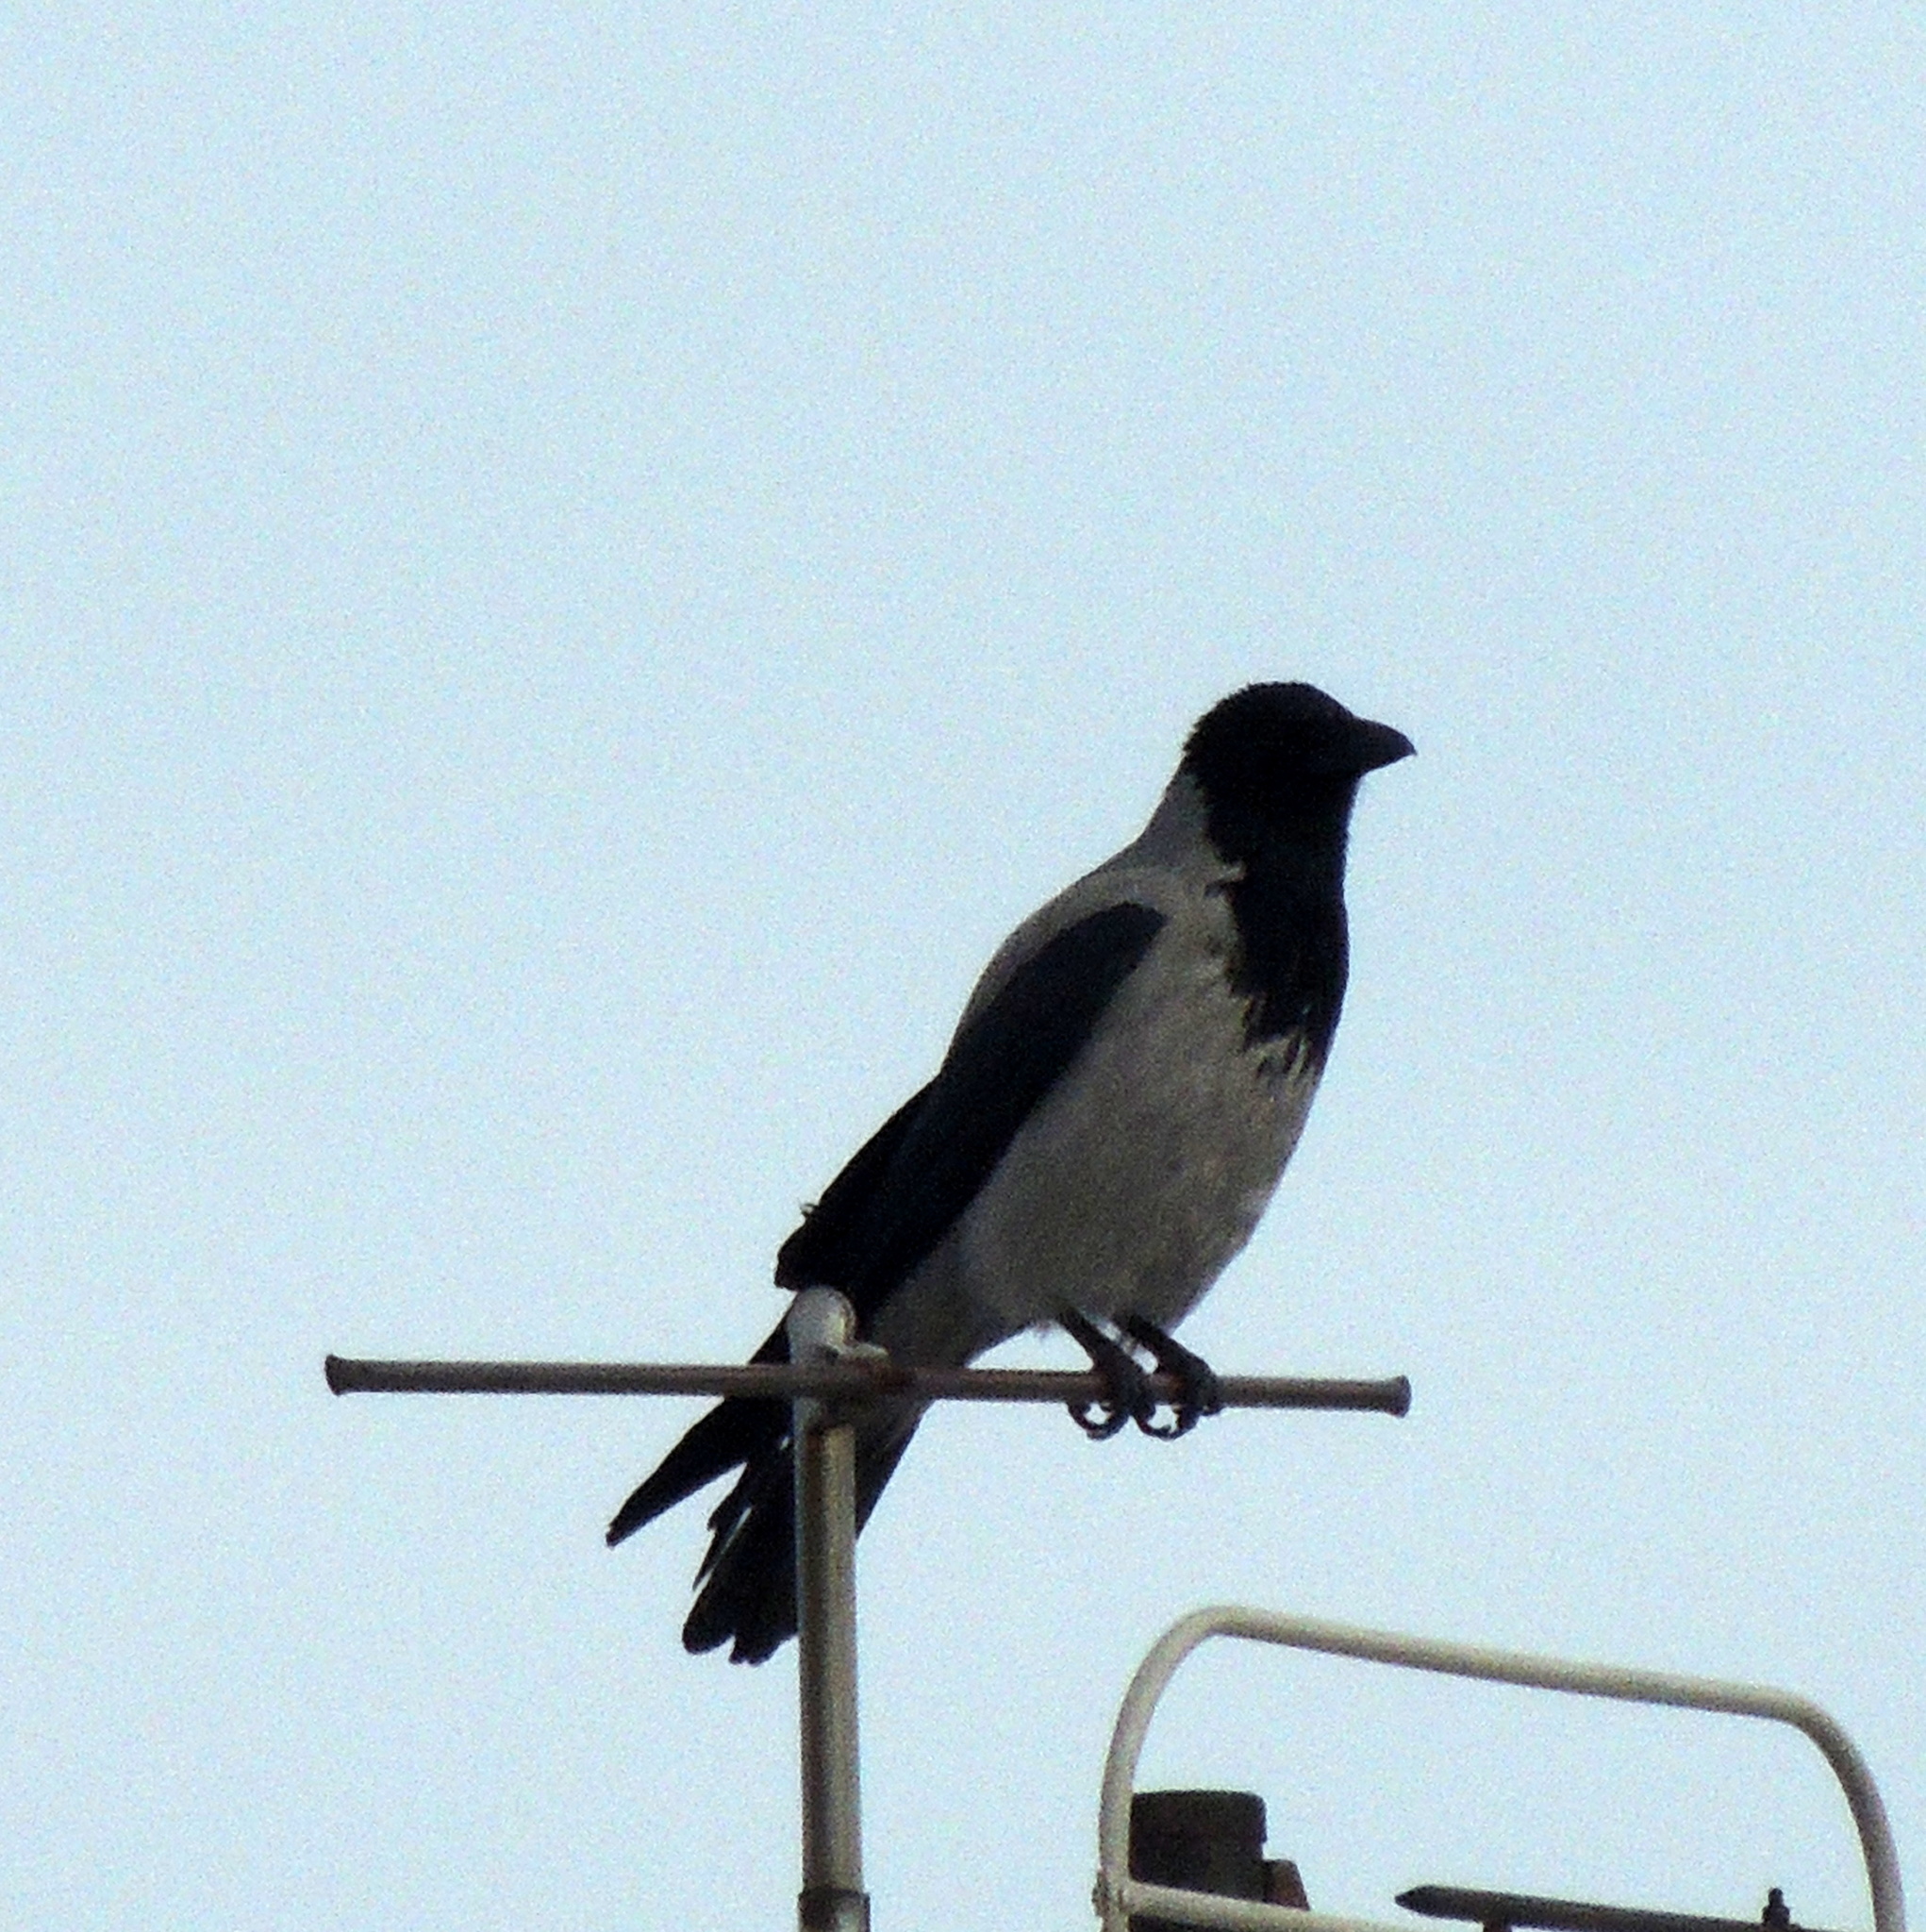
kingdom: Animalia
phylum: Chordata
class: Aves
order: Passeriformes
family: Corvidae
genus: Corvus
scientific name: Corvus cornix
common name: Hooded crow
